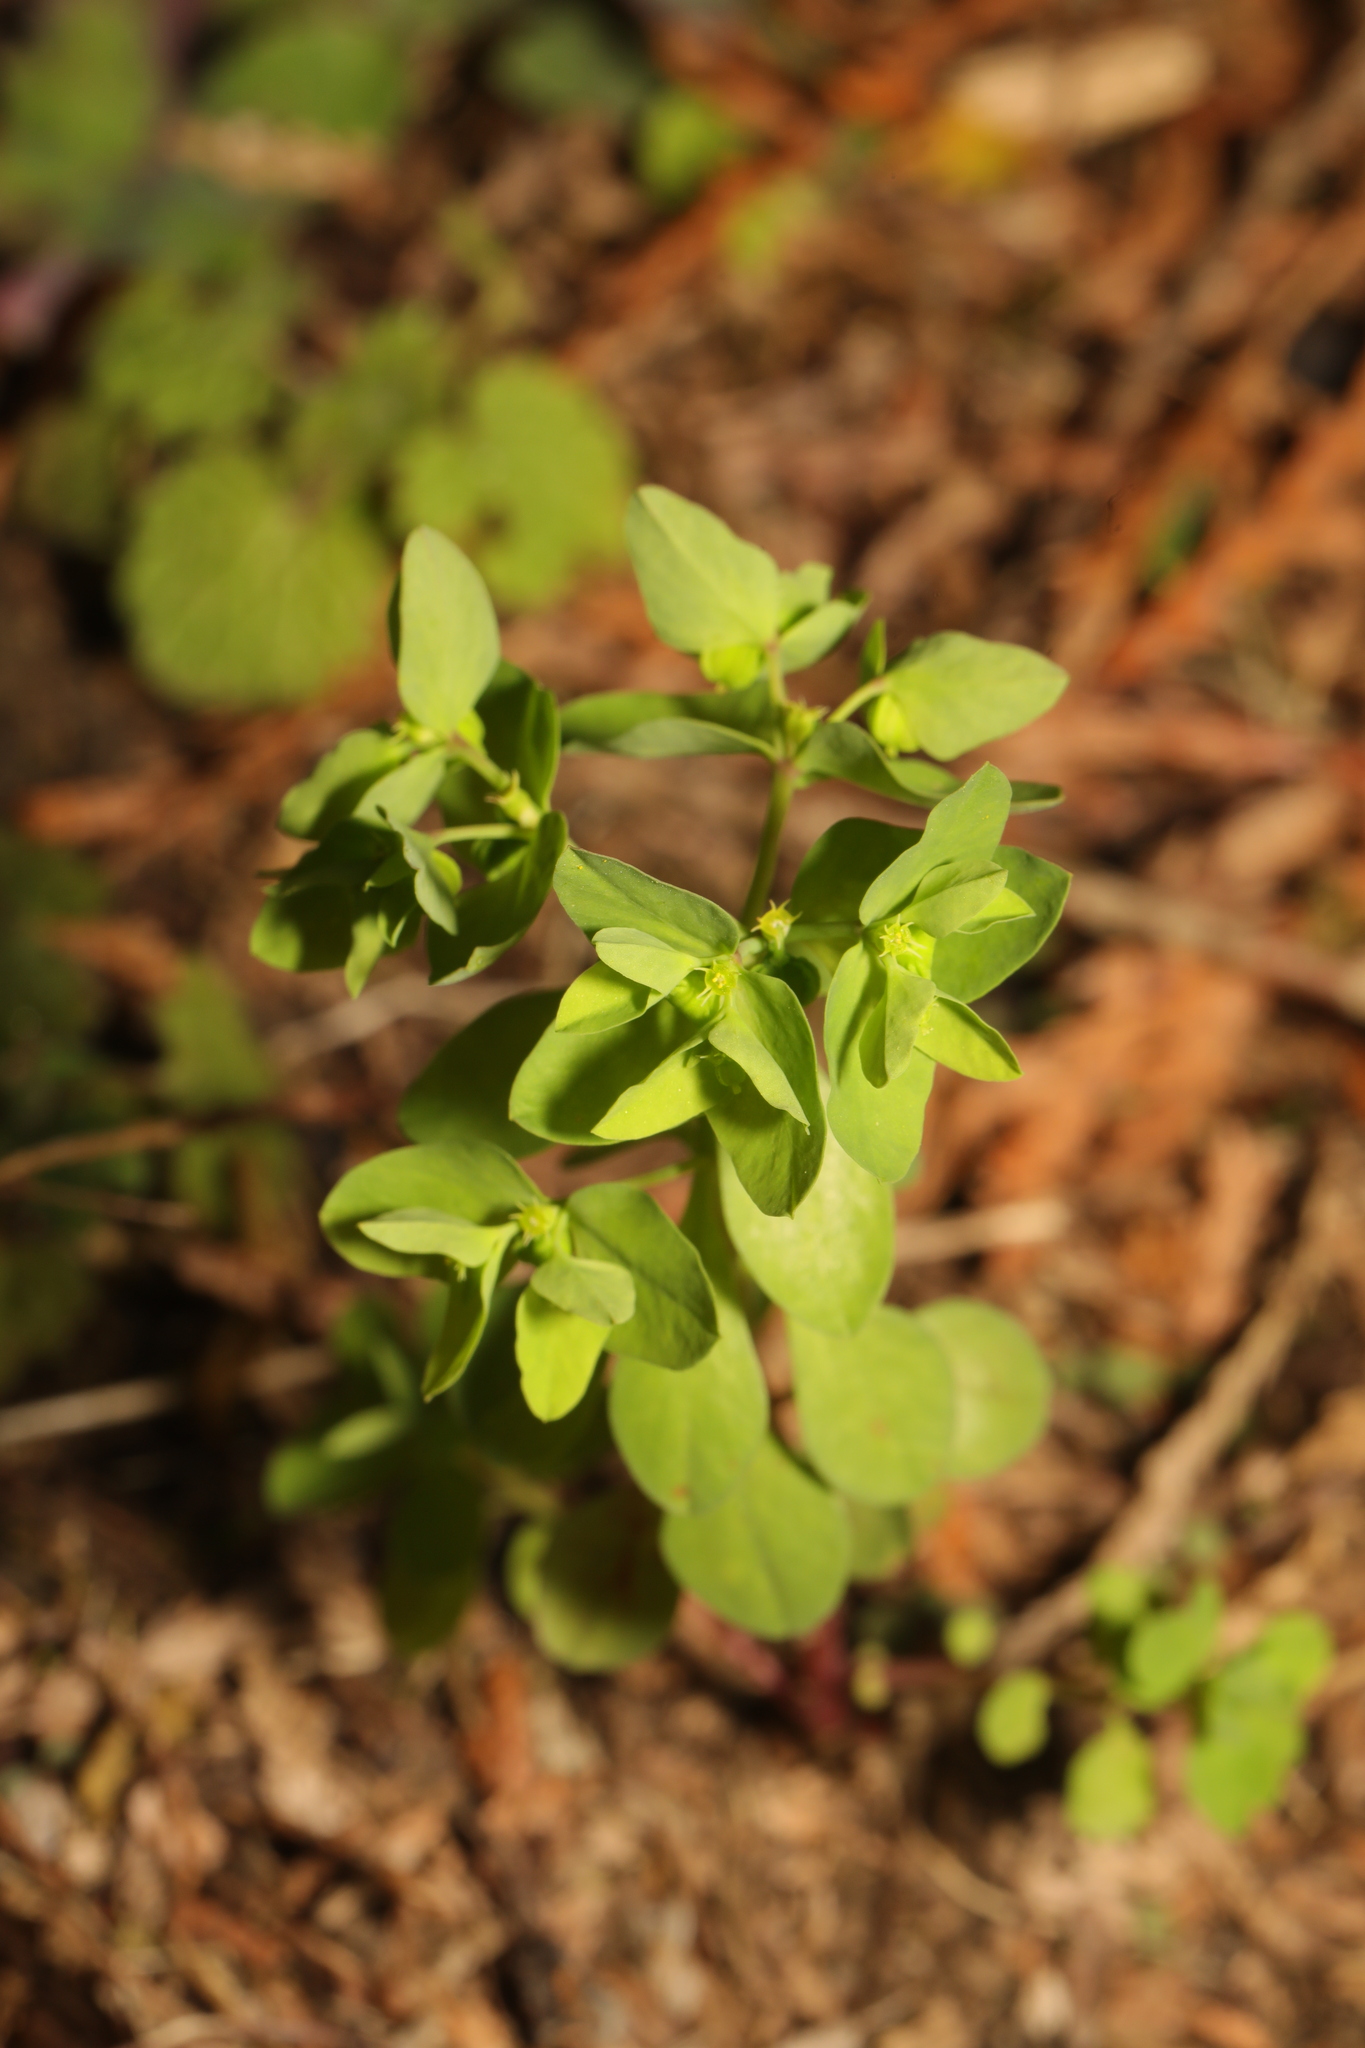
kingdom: Plantae
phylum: Tracheophyta
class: Magnoliopsida
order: Malpighiales
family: Euphorbiaceae
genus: Euphorbia
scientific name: Euphorbia peplus
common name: Petty spurge
